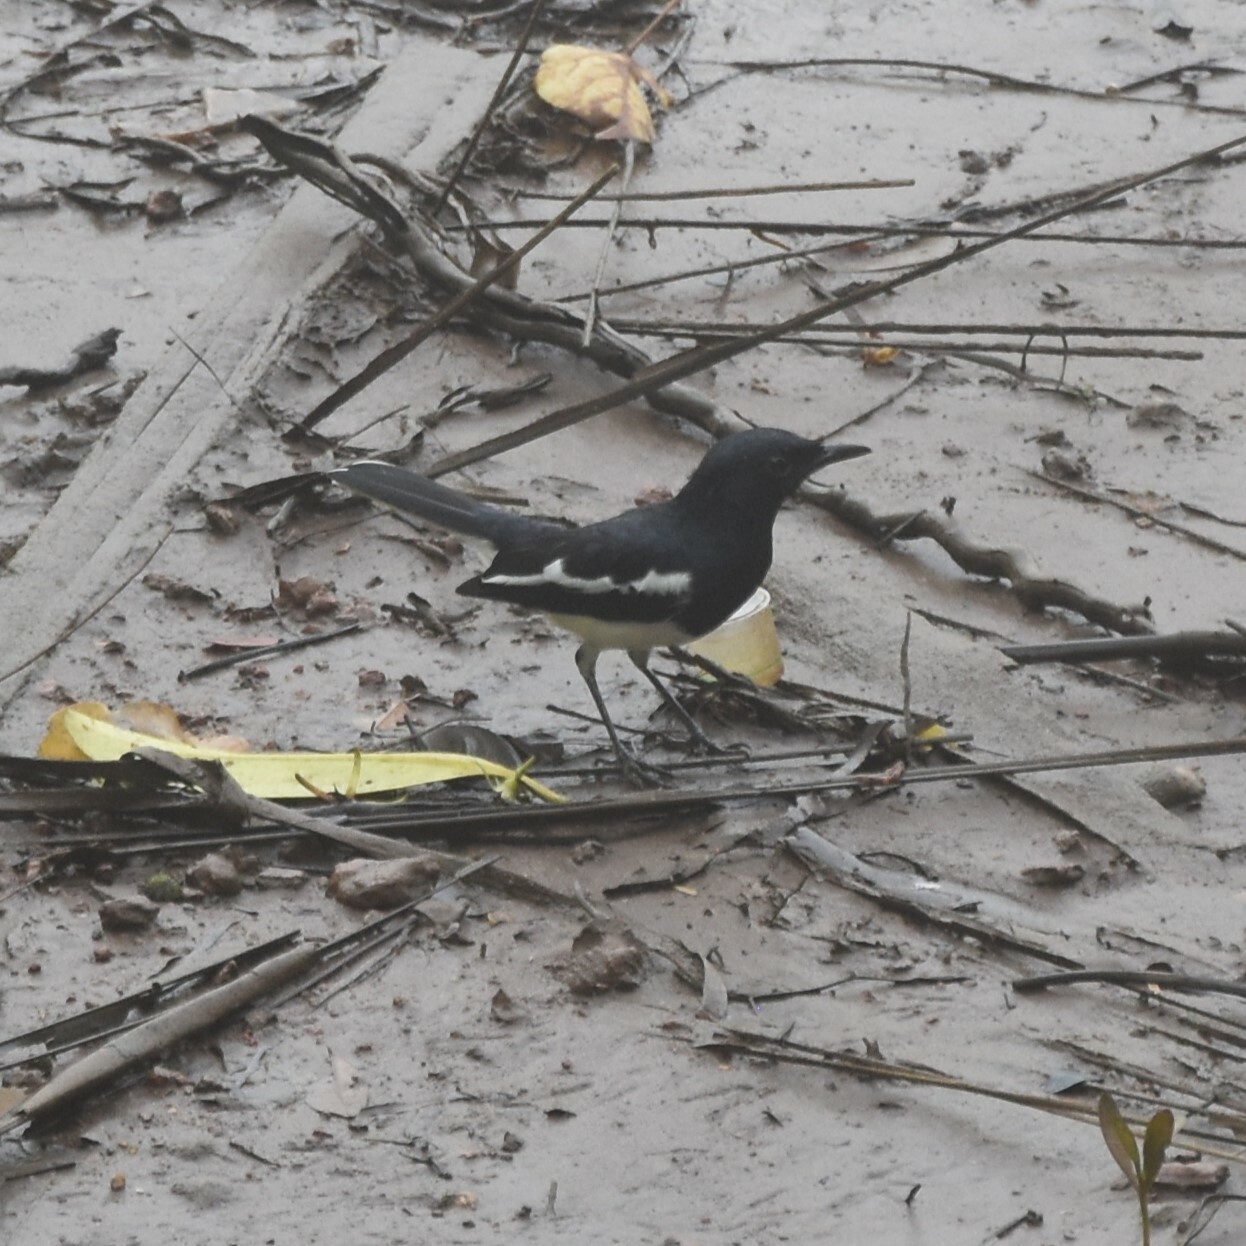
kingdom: Animalia
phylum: Chordata
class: Aves
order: Passeriformes
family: Muscicapidae
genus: Copsychus
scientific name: Copsychus saularis
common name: Oriental magpie-robin
